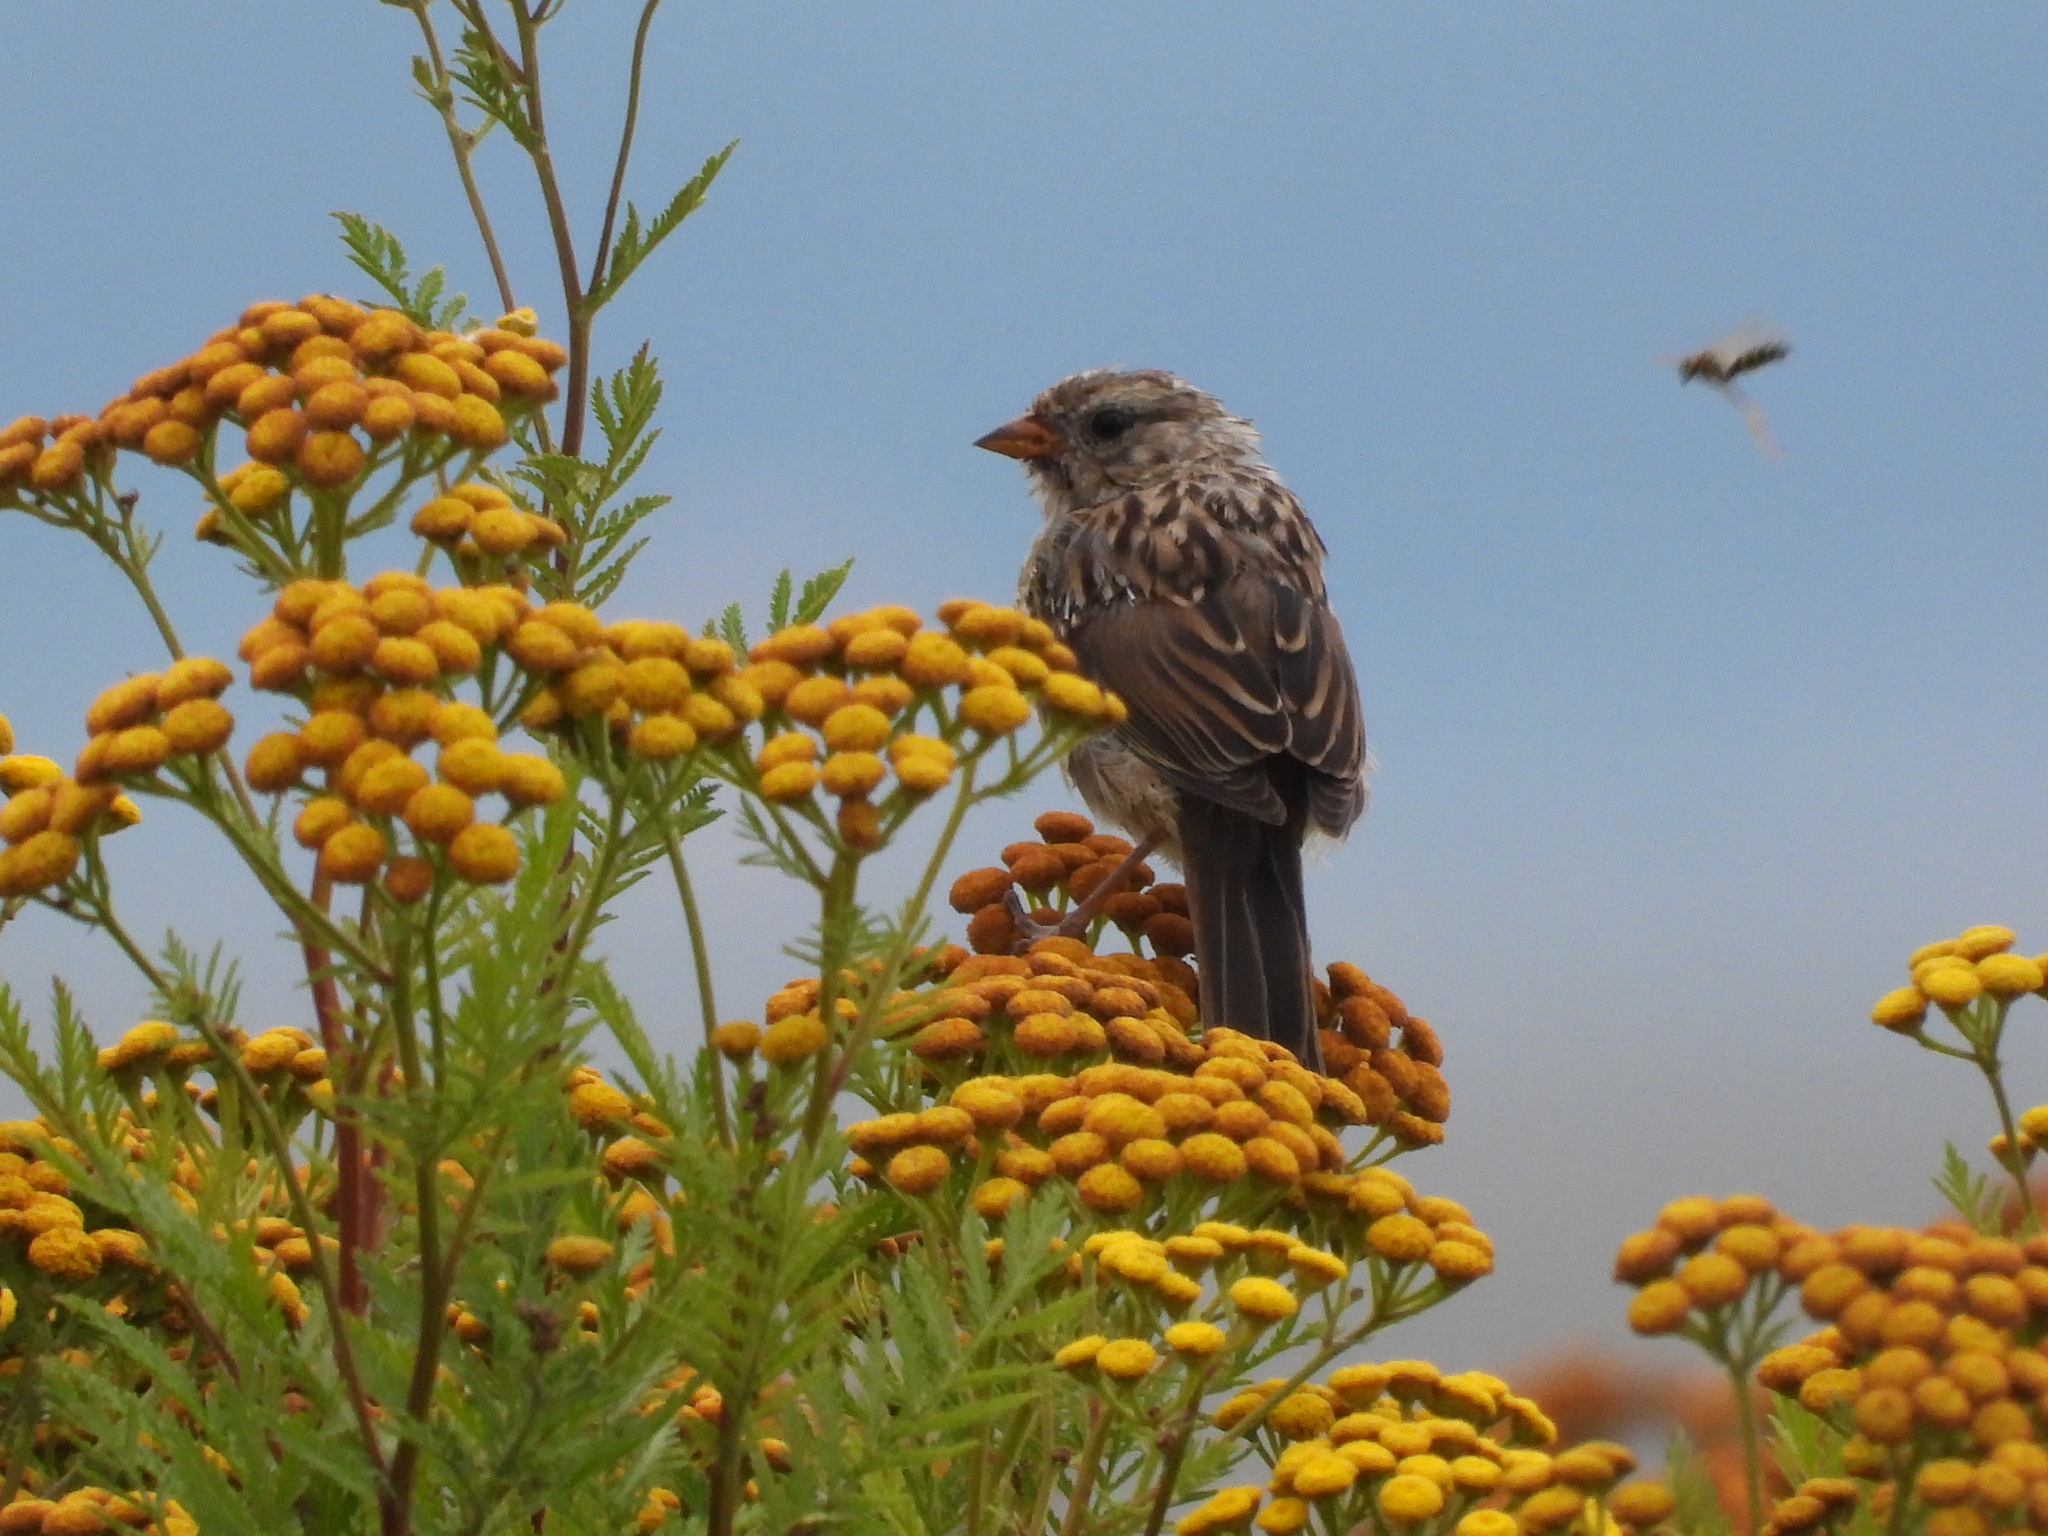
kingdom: Animalia
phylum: Chordata
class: Aves
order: Passeriformes
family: Passerellidae
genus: Zonotrichia
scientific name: Zonotrichia leucophrys
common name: White-crowned sparrow
